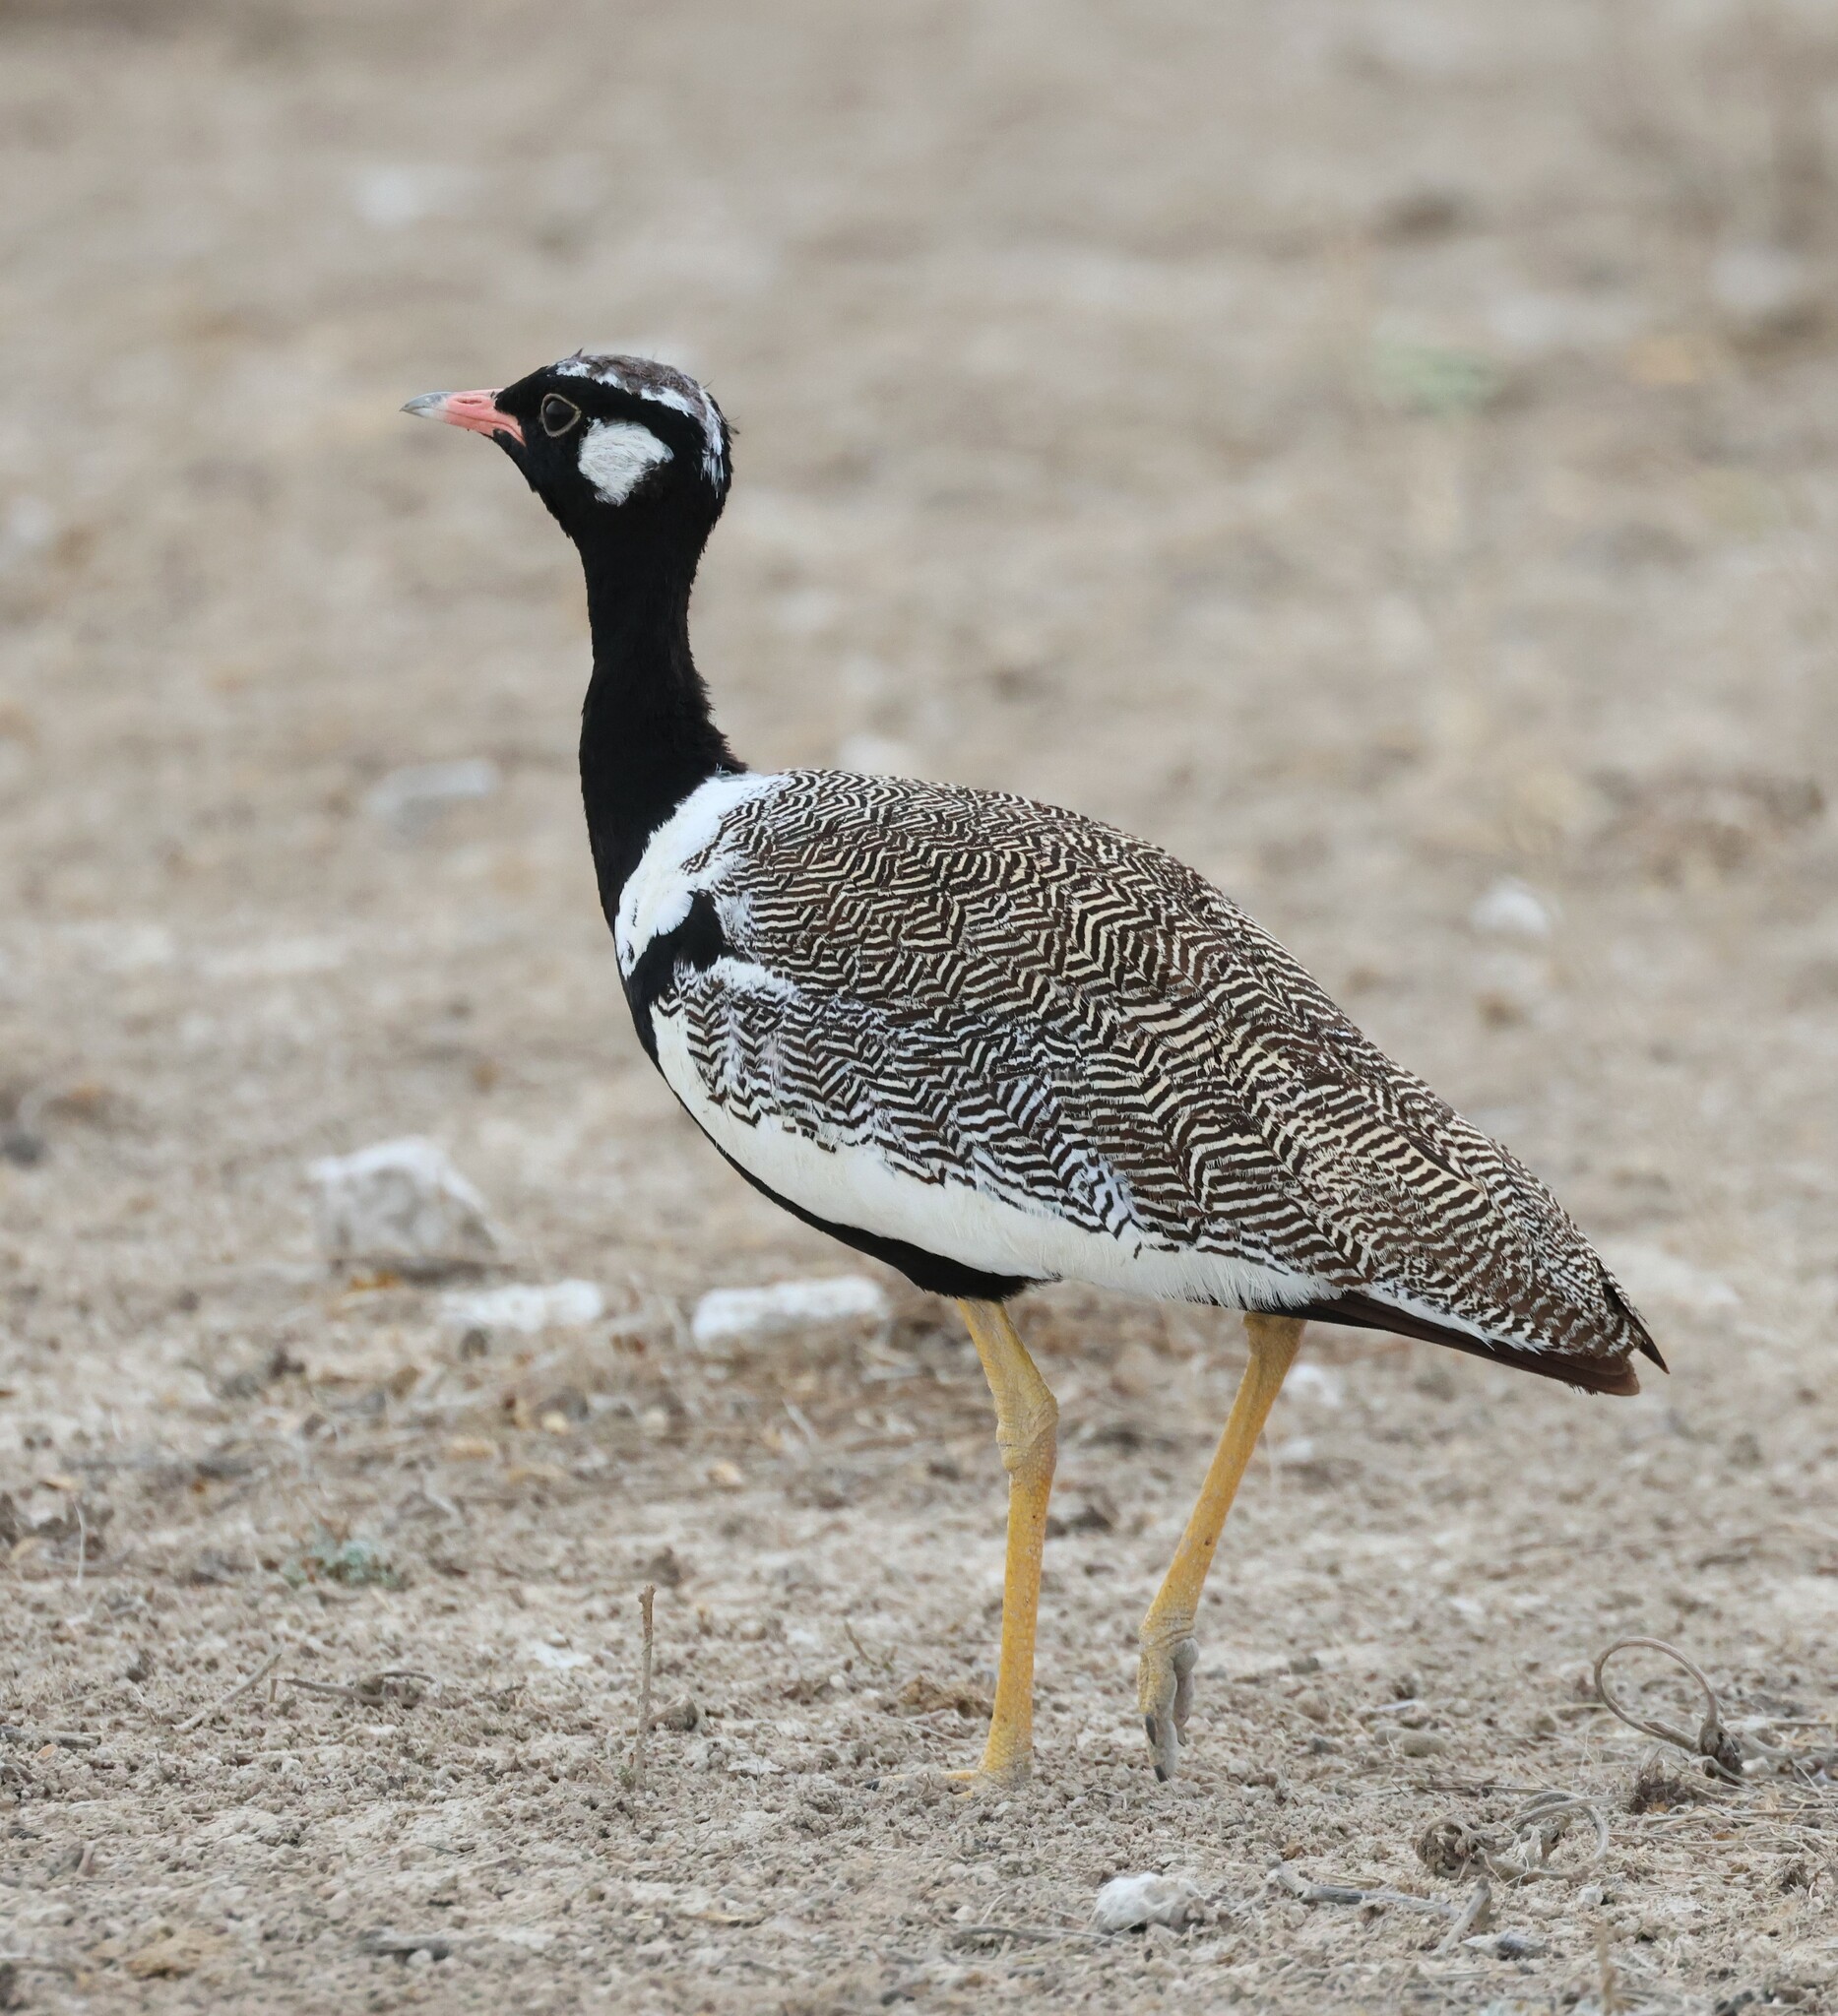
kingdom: Animalia
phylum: Chordata
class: Aves
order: Otidiformes
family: Otididae
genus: Afrotis
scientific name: Afrotis afraoides
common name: Northern black korhaan
